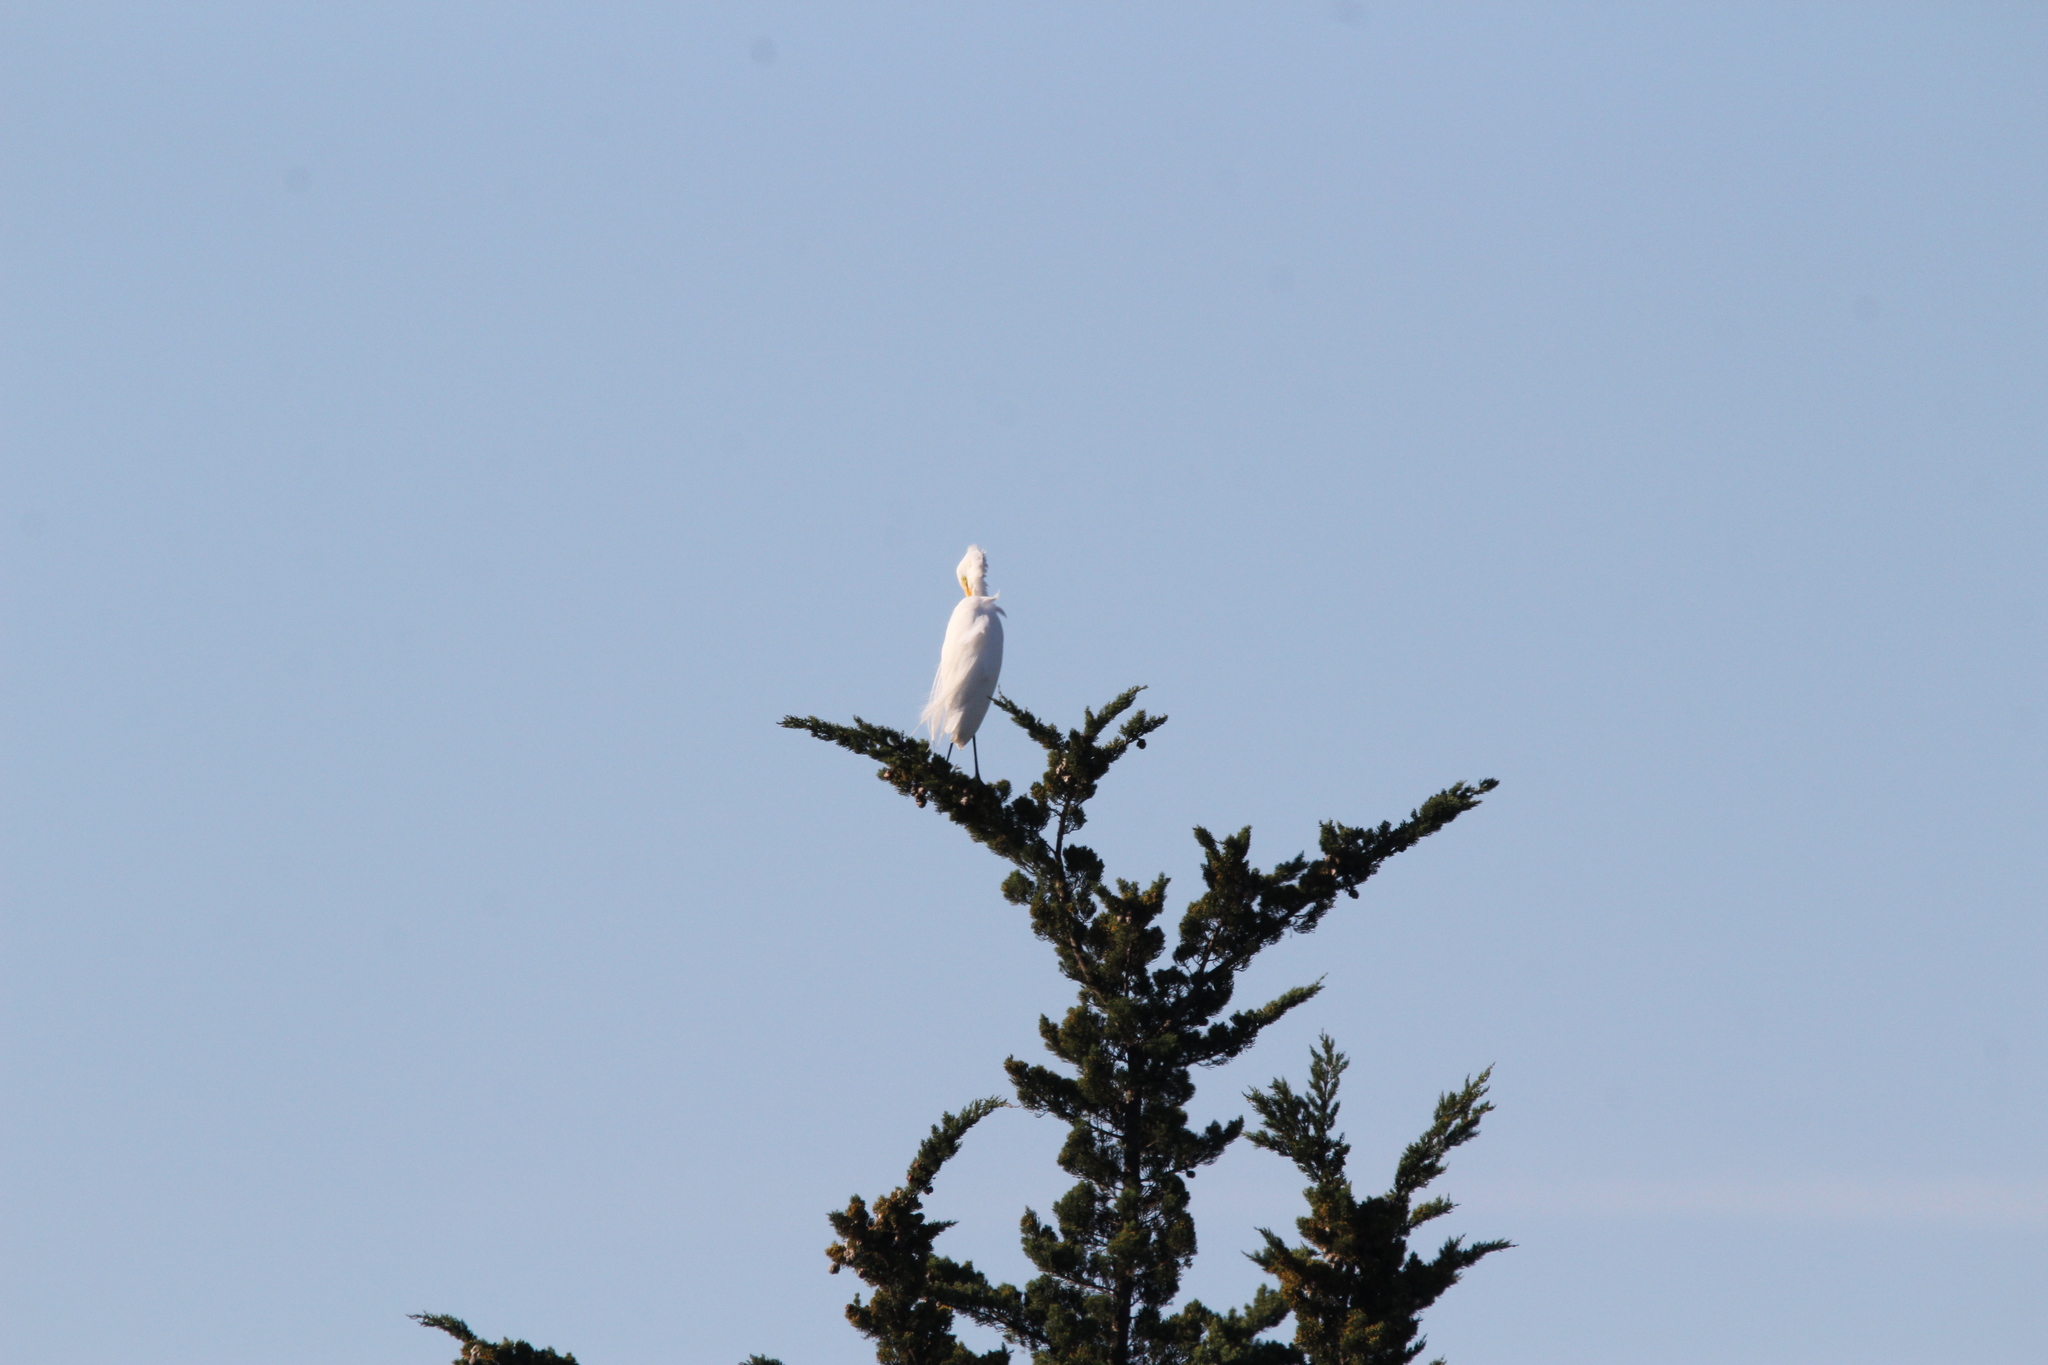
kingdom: Animalia
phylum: Chordata
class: Aves
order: Pelecaniformes
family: Ardeidae
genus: Ardea
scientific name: Ardea alba
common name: Great egret
